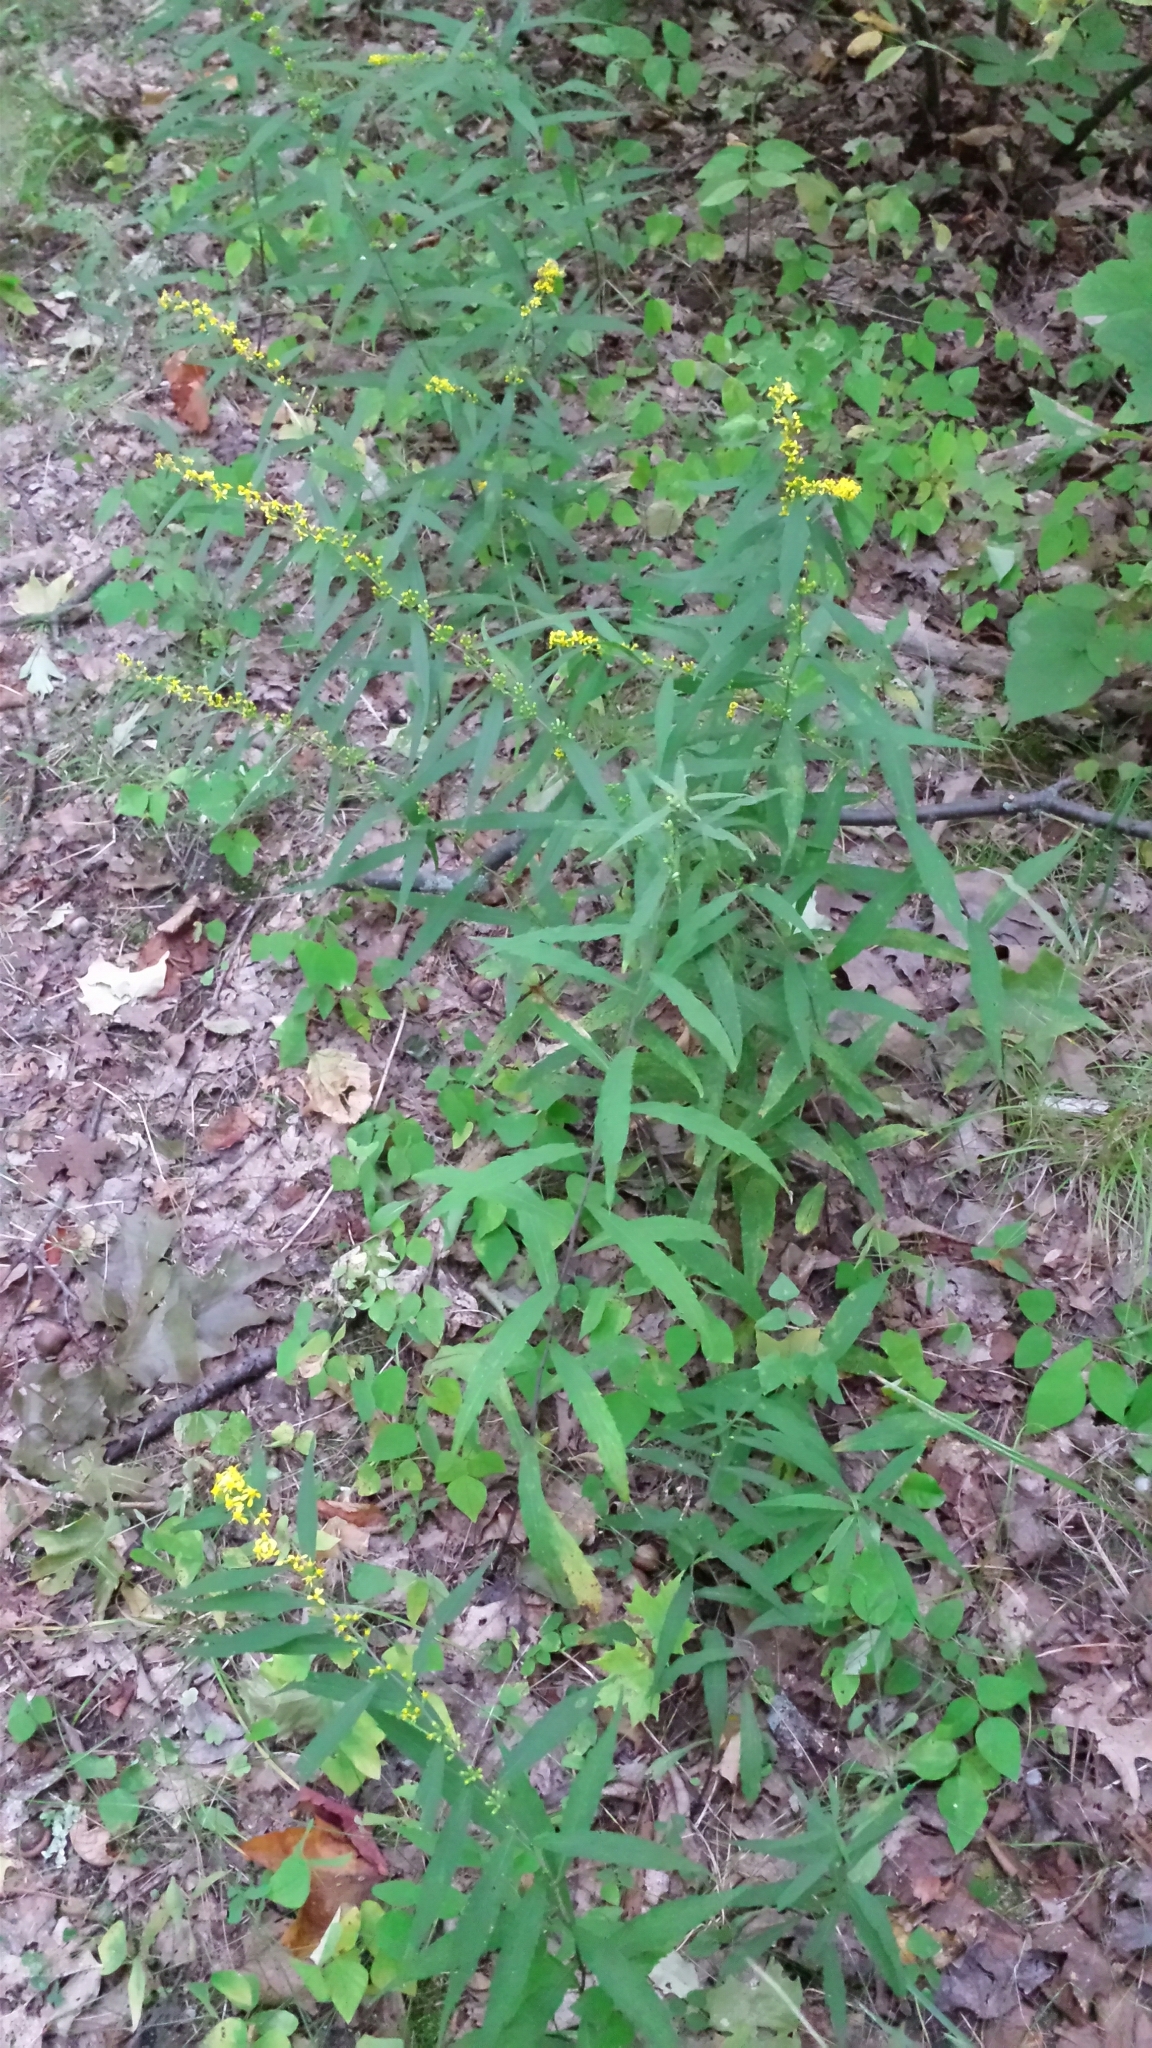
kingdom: Plantae
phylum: Tracheophyta
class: Magnoliopsida
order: Asterales
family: Asteraceae
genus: Solidago
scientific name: Solidago caesia
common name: Woodland goldenrod
